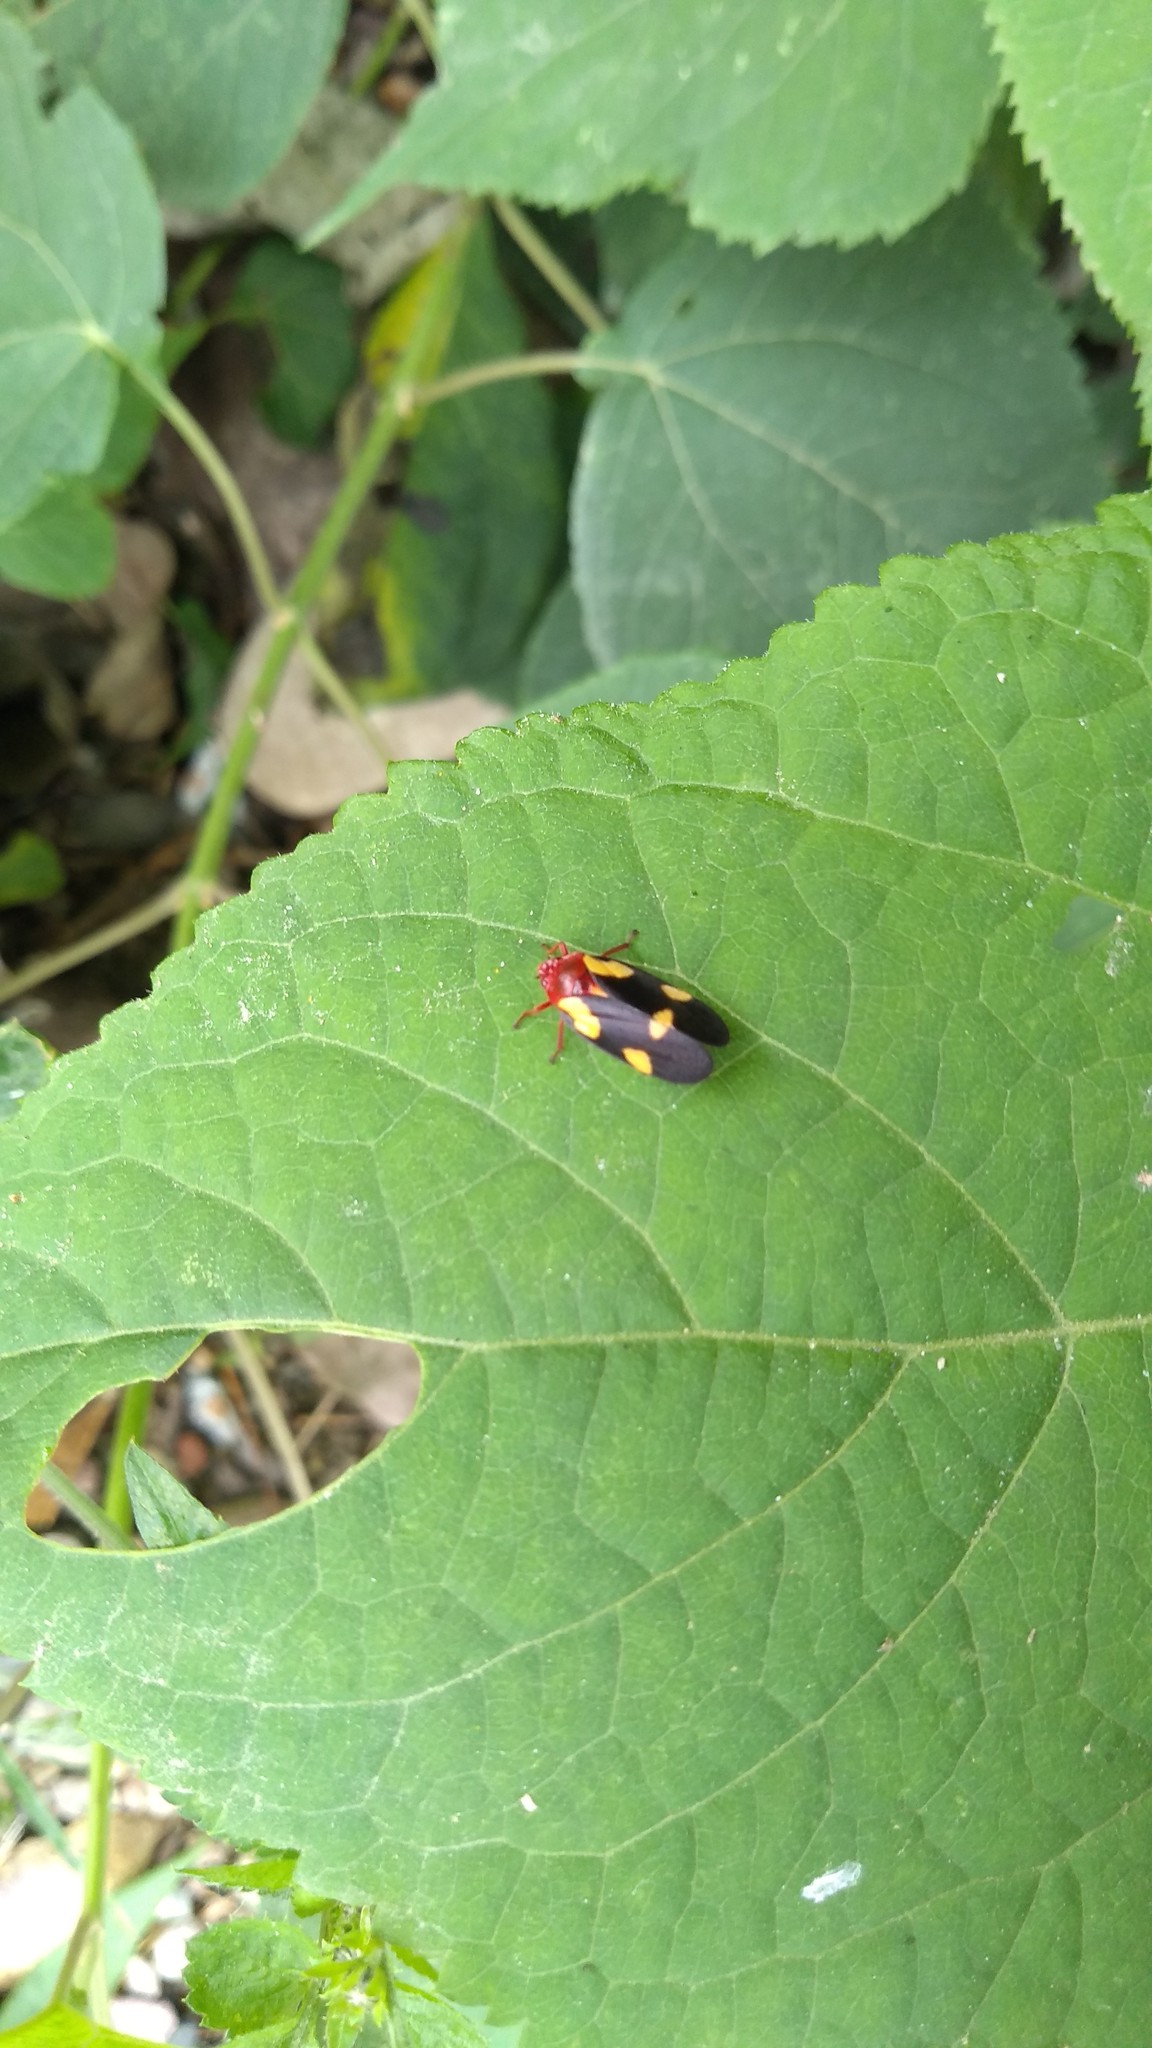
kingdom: Animalia
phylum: Arthropoda
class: Insecta
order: Hemiptera
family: Cercopidae
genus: Sphenorhina
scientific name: Sphenorhina limbata
